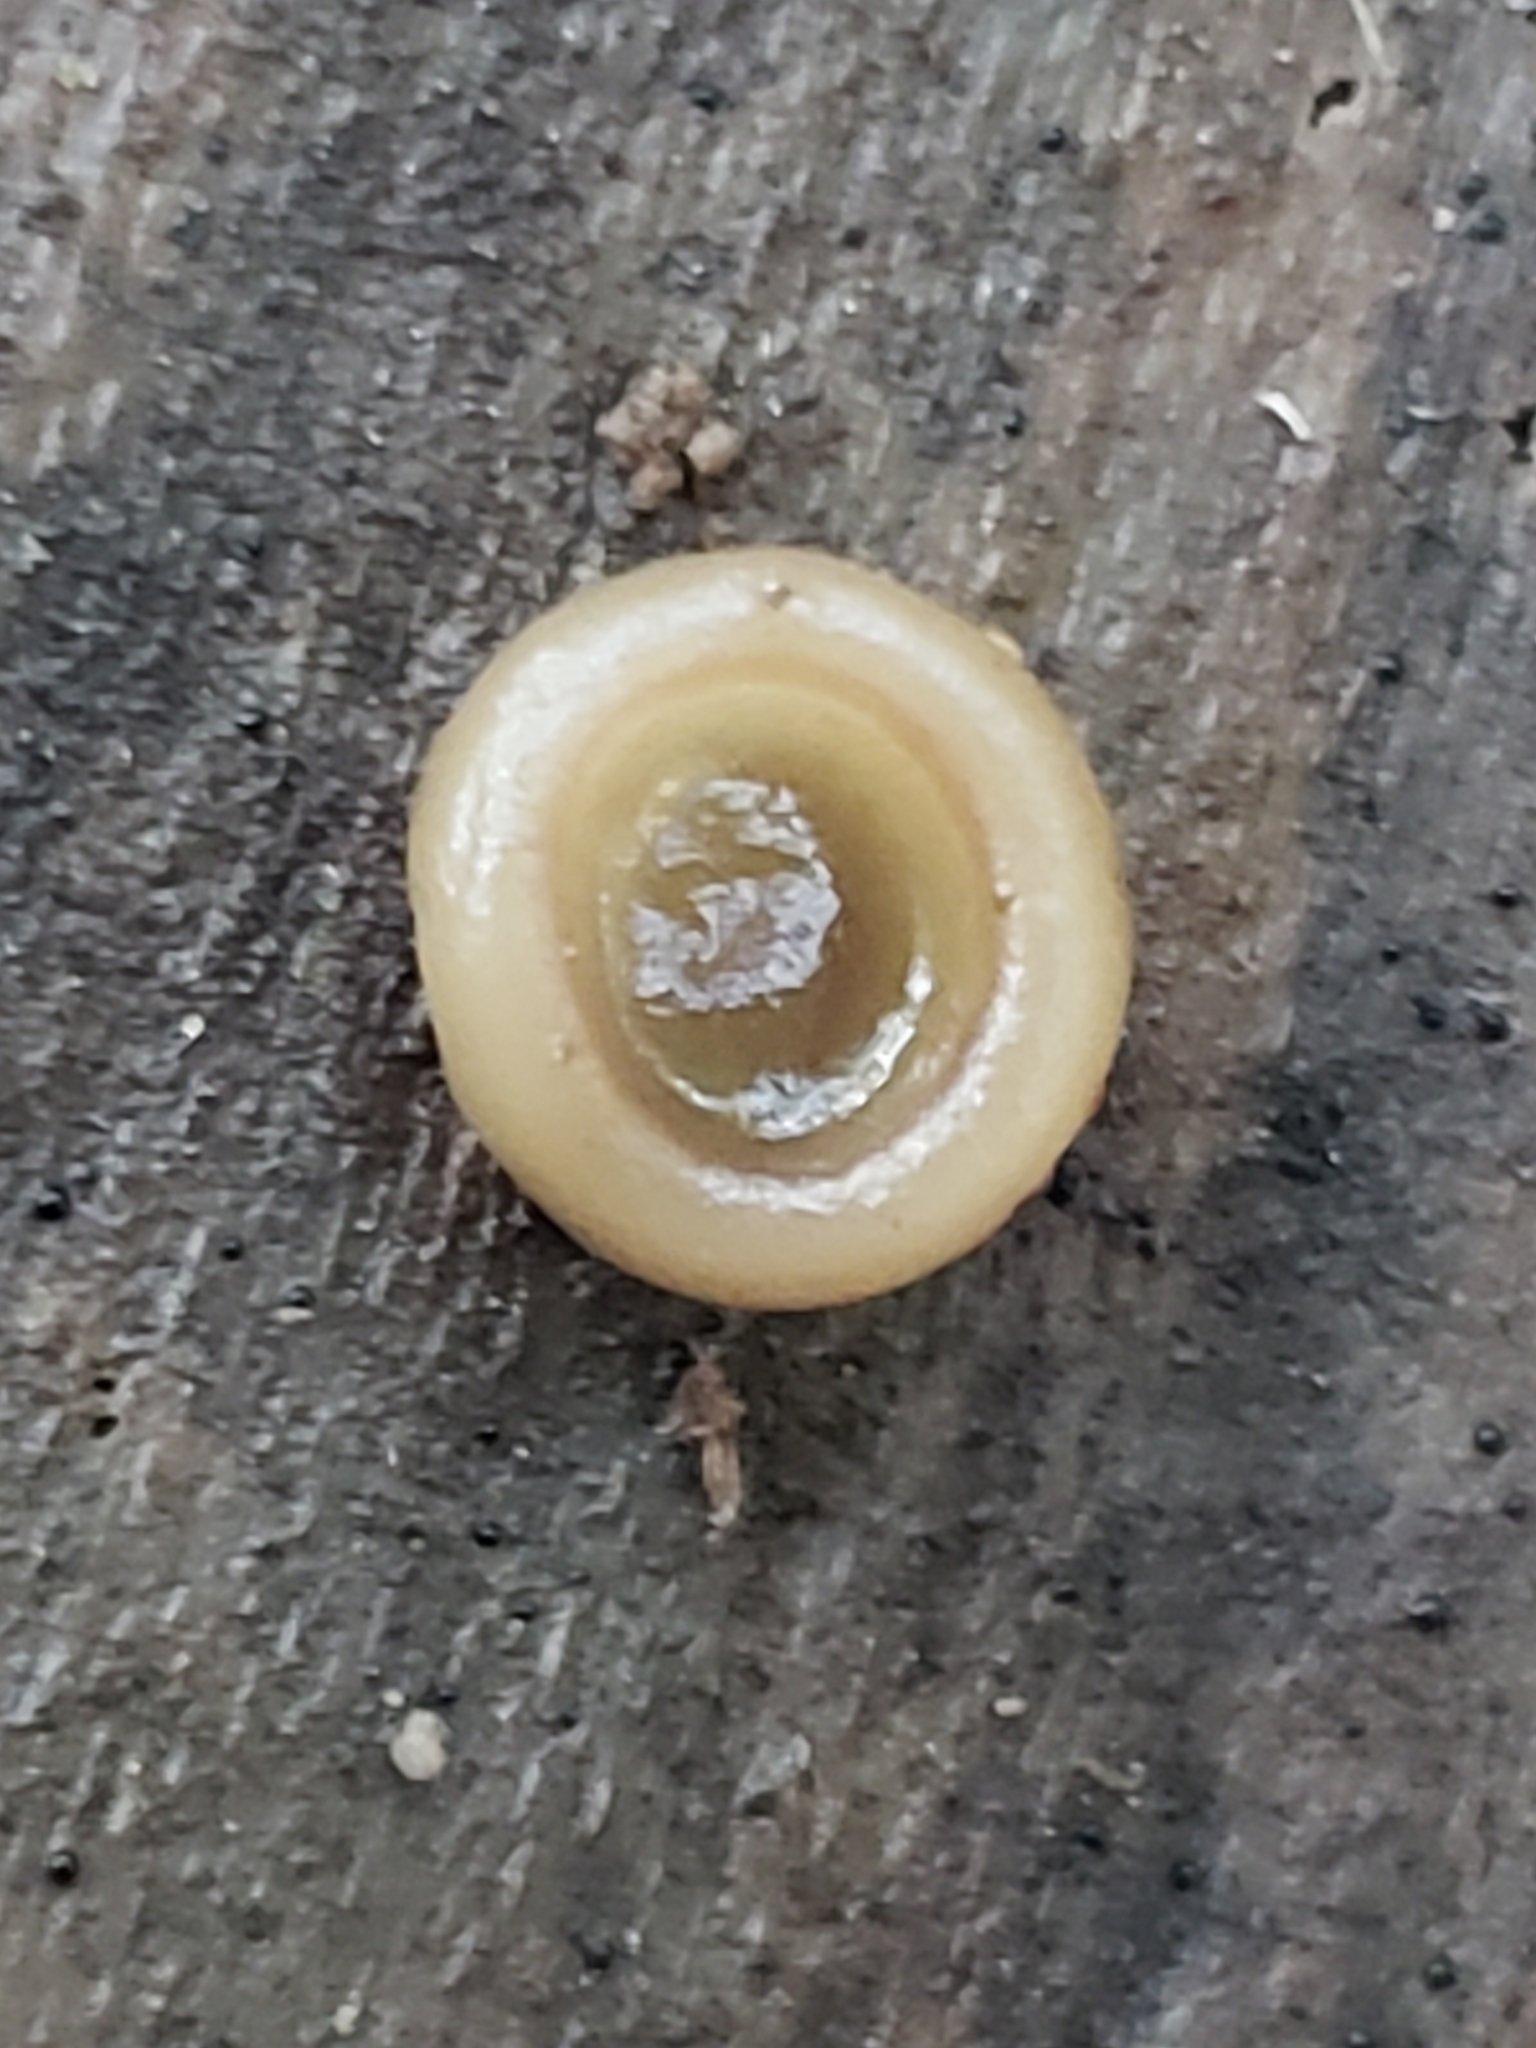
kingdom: Fungi
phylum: Ascomycota
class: Pezizomycetes
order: Pezizales
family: Pezizaceae
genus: Pachyella
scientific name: Pachyella clypeata
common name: Copper penny fungus
